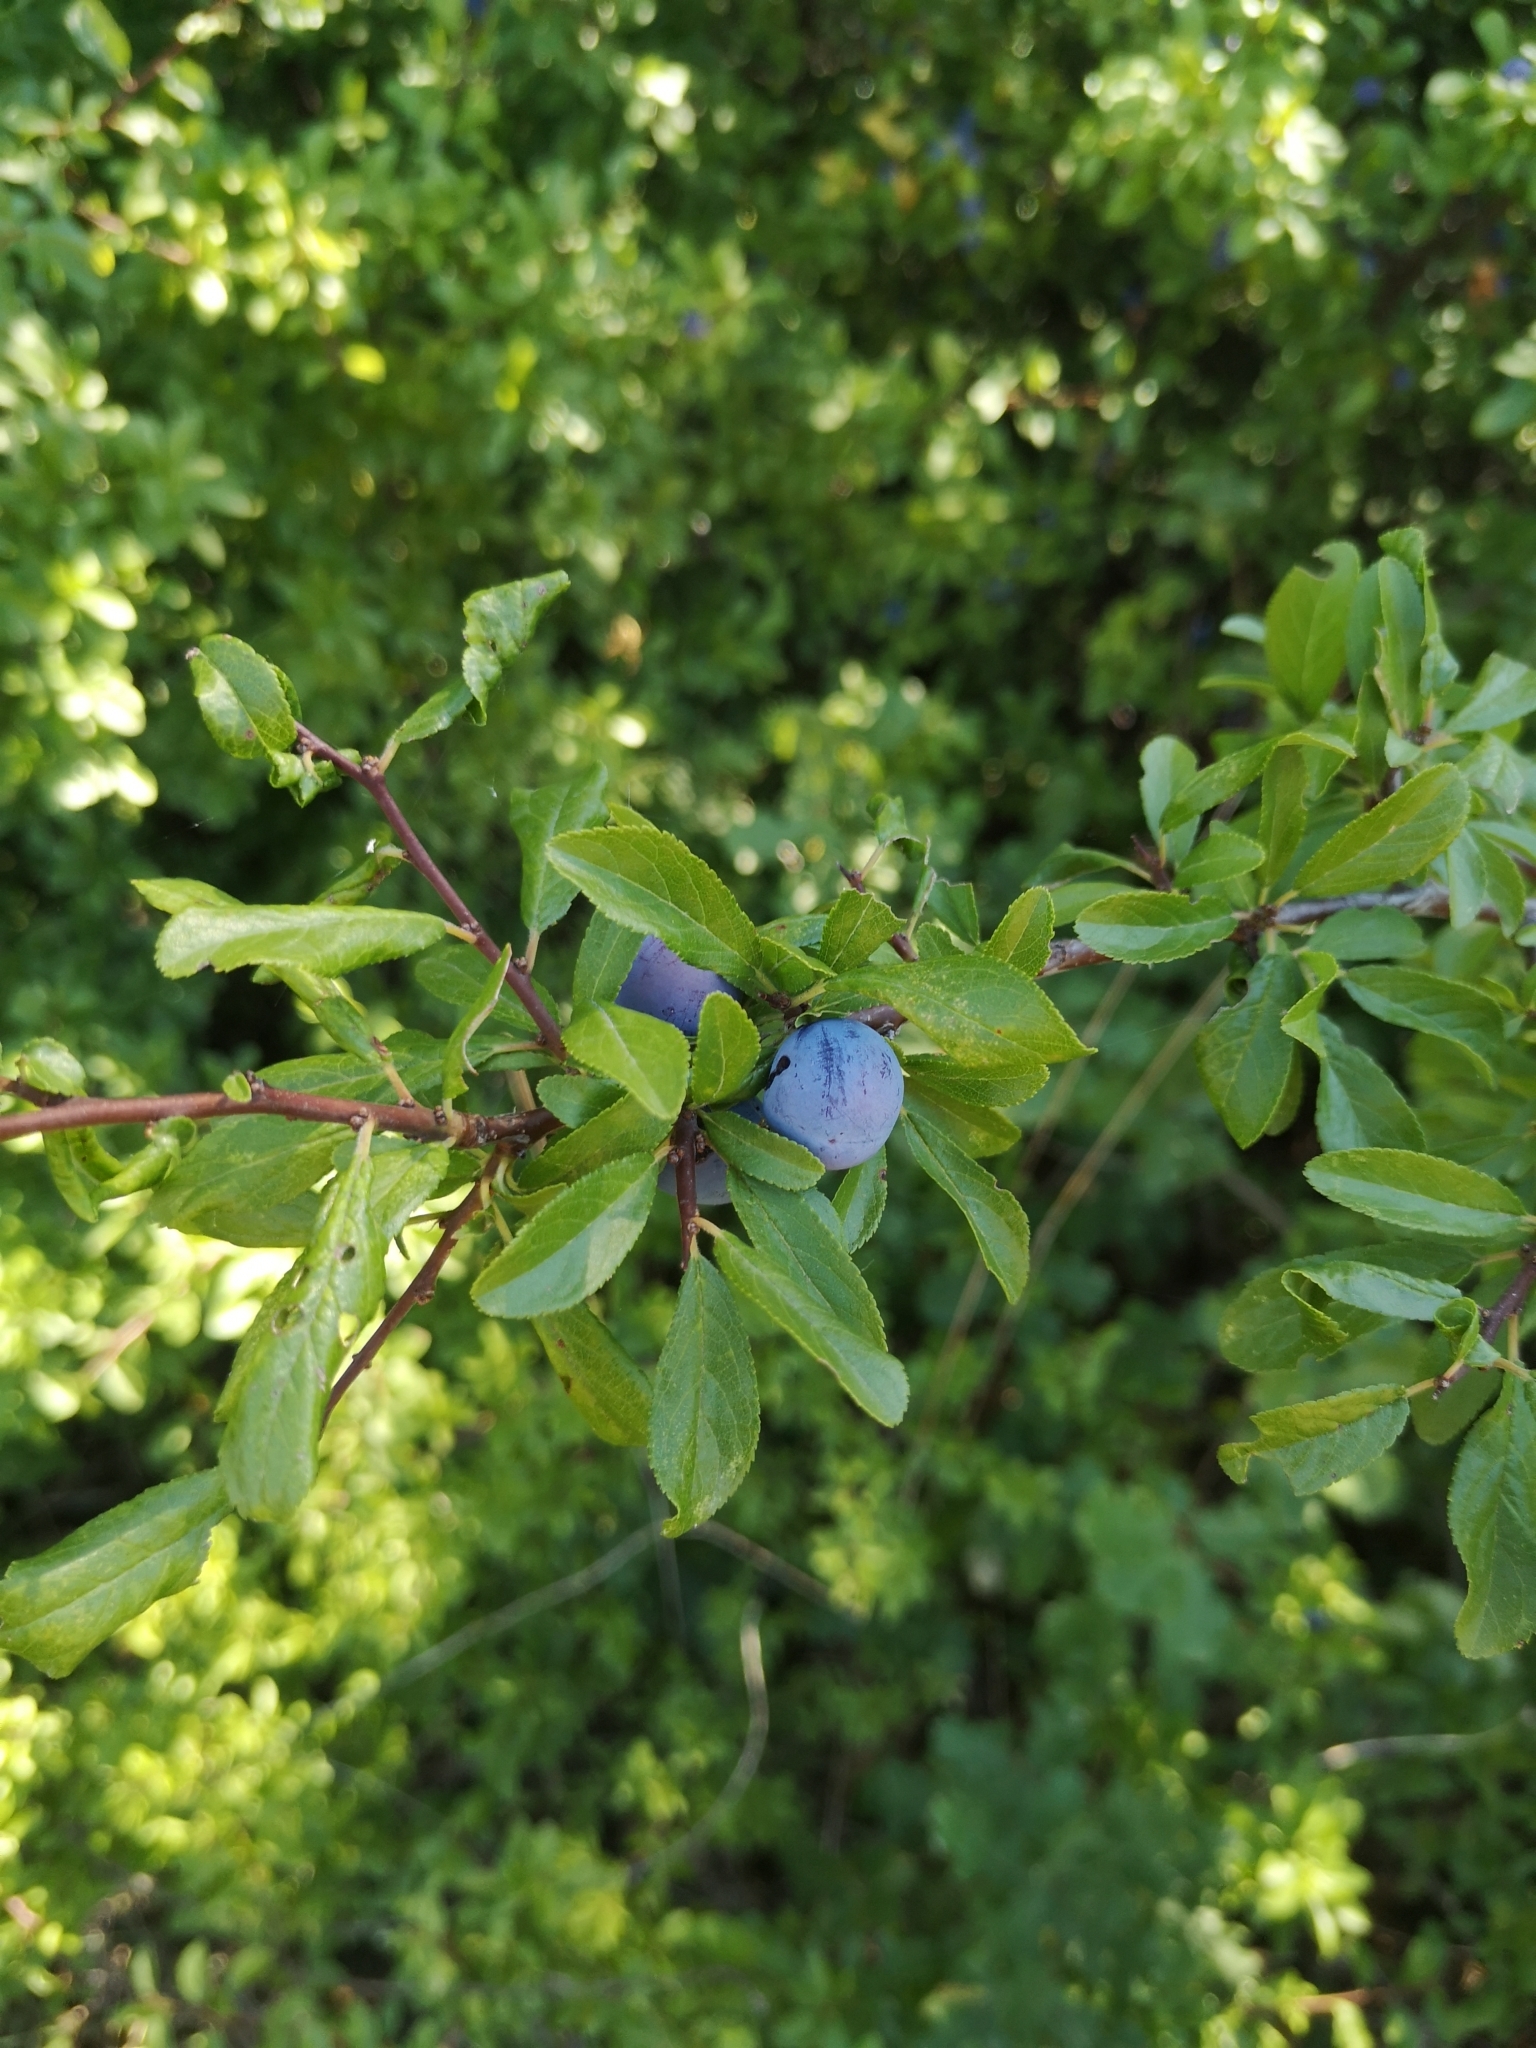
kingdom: Plantae
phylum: Tracheophyta
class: Magnoliopsida
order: Rosales
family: Rosaceae
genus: Prunus
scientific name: Prunus spinosa
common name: Blackthorn
